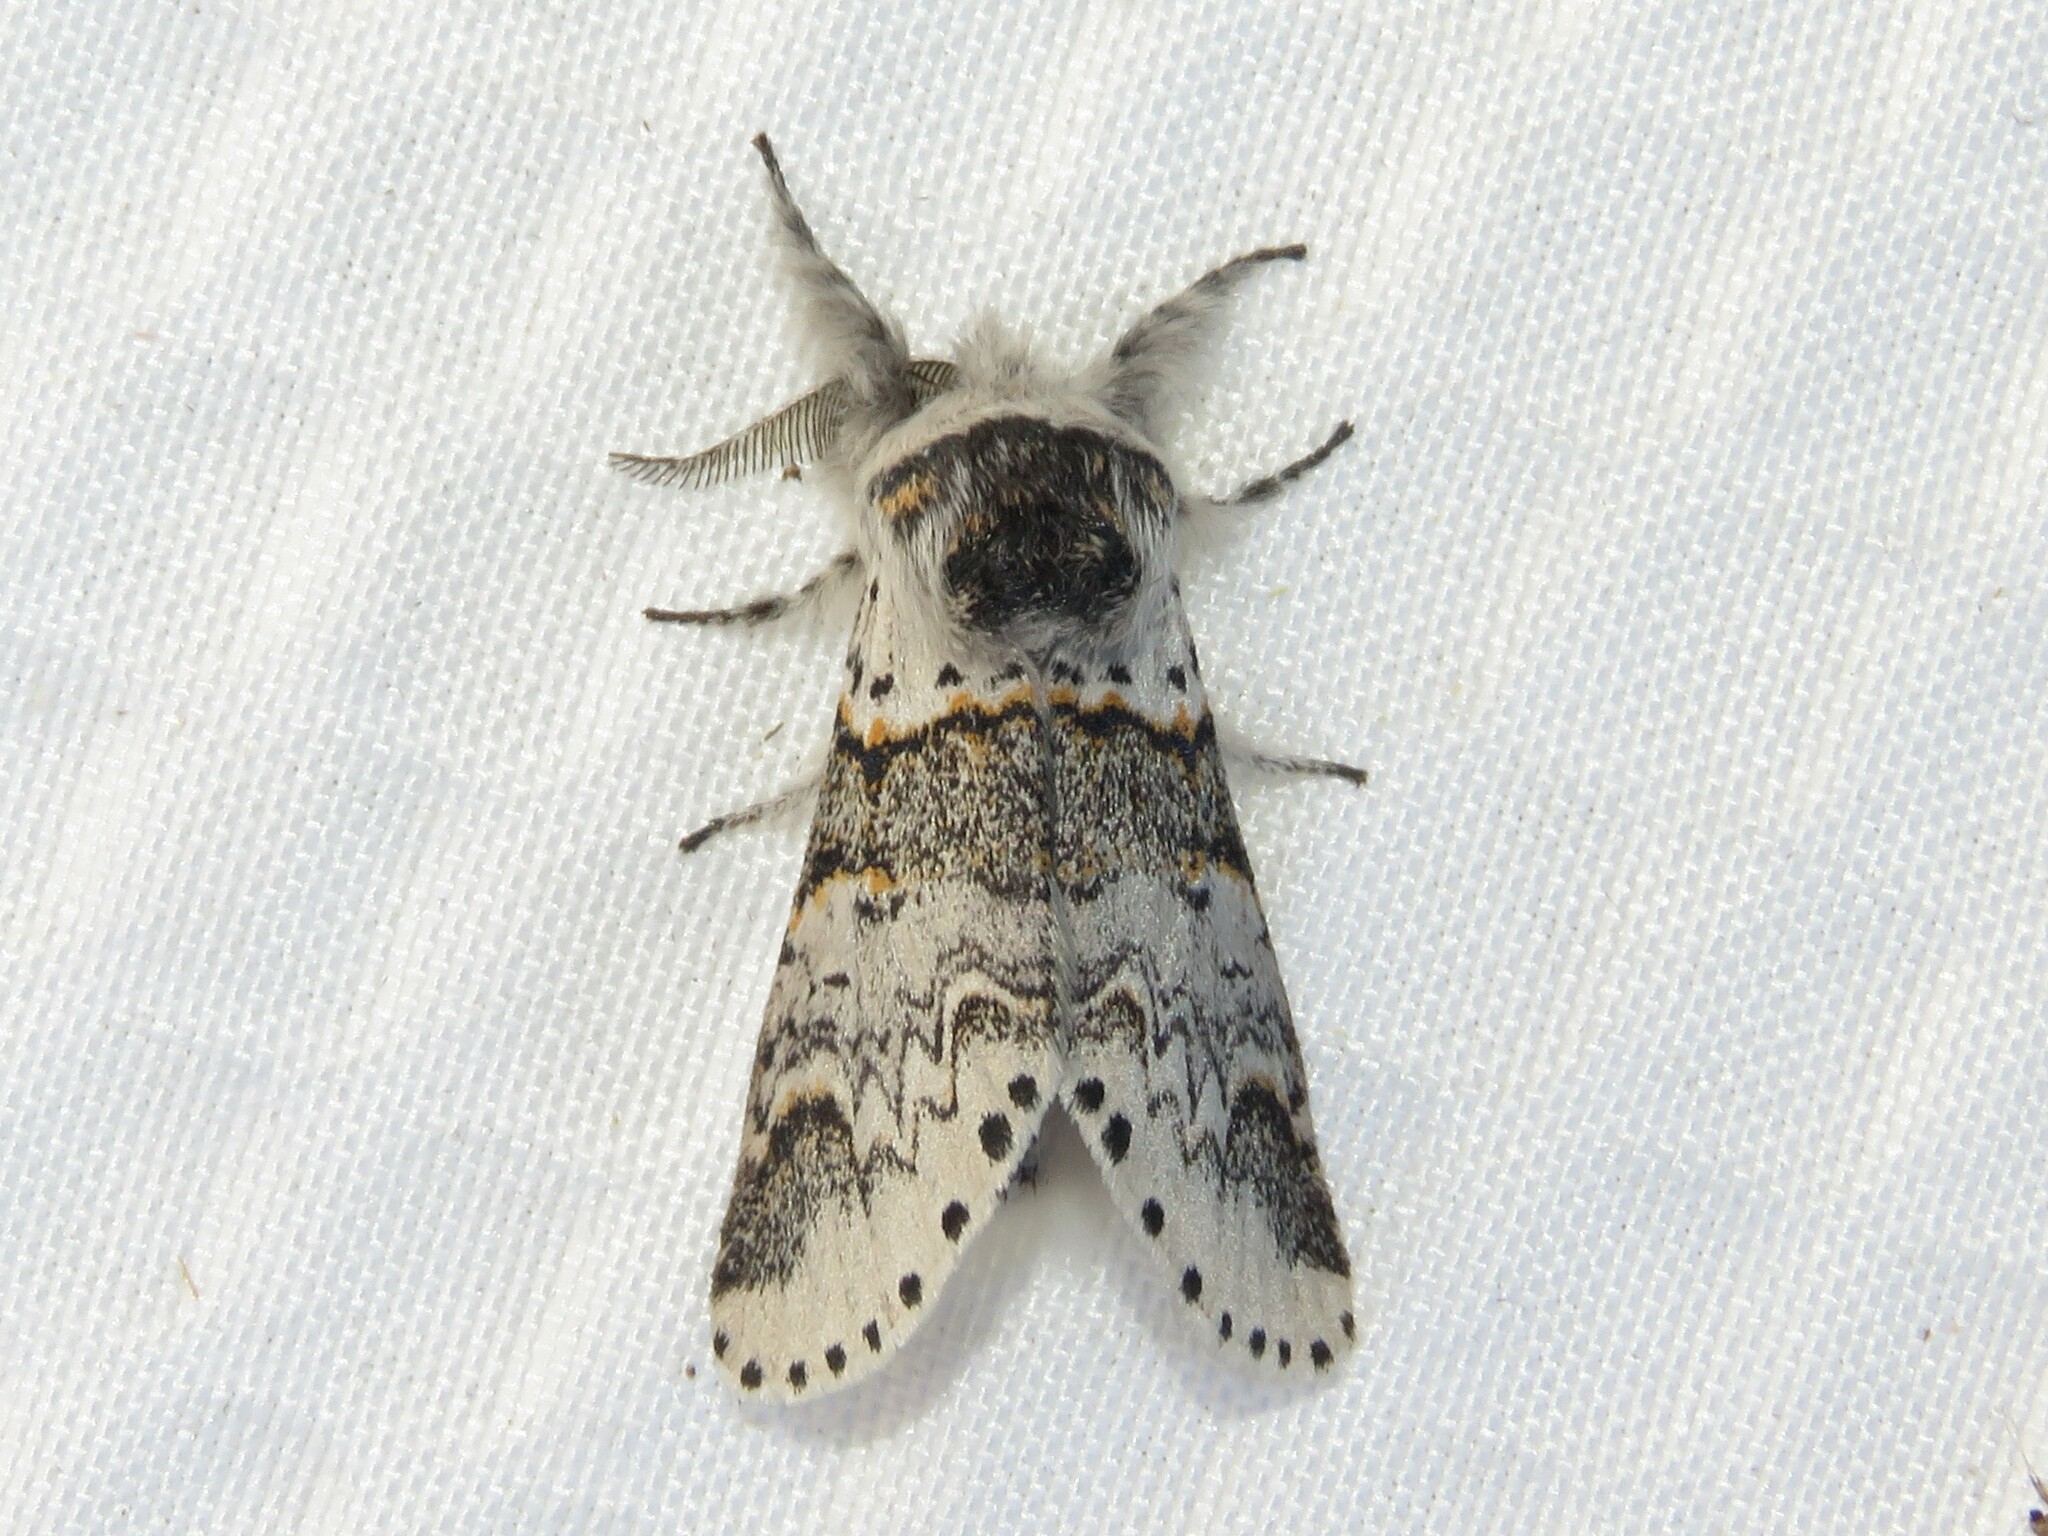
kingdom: Animalia
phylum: Arthropoda
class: Insecta
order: Lepidoptera
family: Notodontidae
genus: Furcula
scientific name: Furcula occidentalis
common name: Western furcula moth
